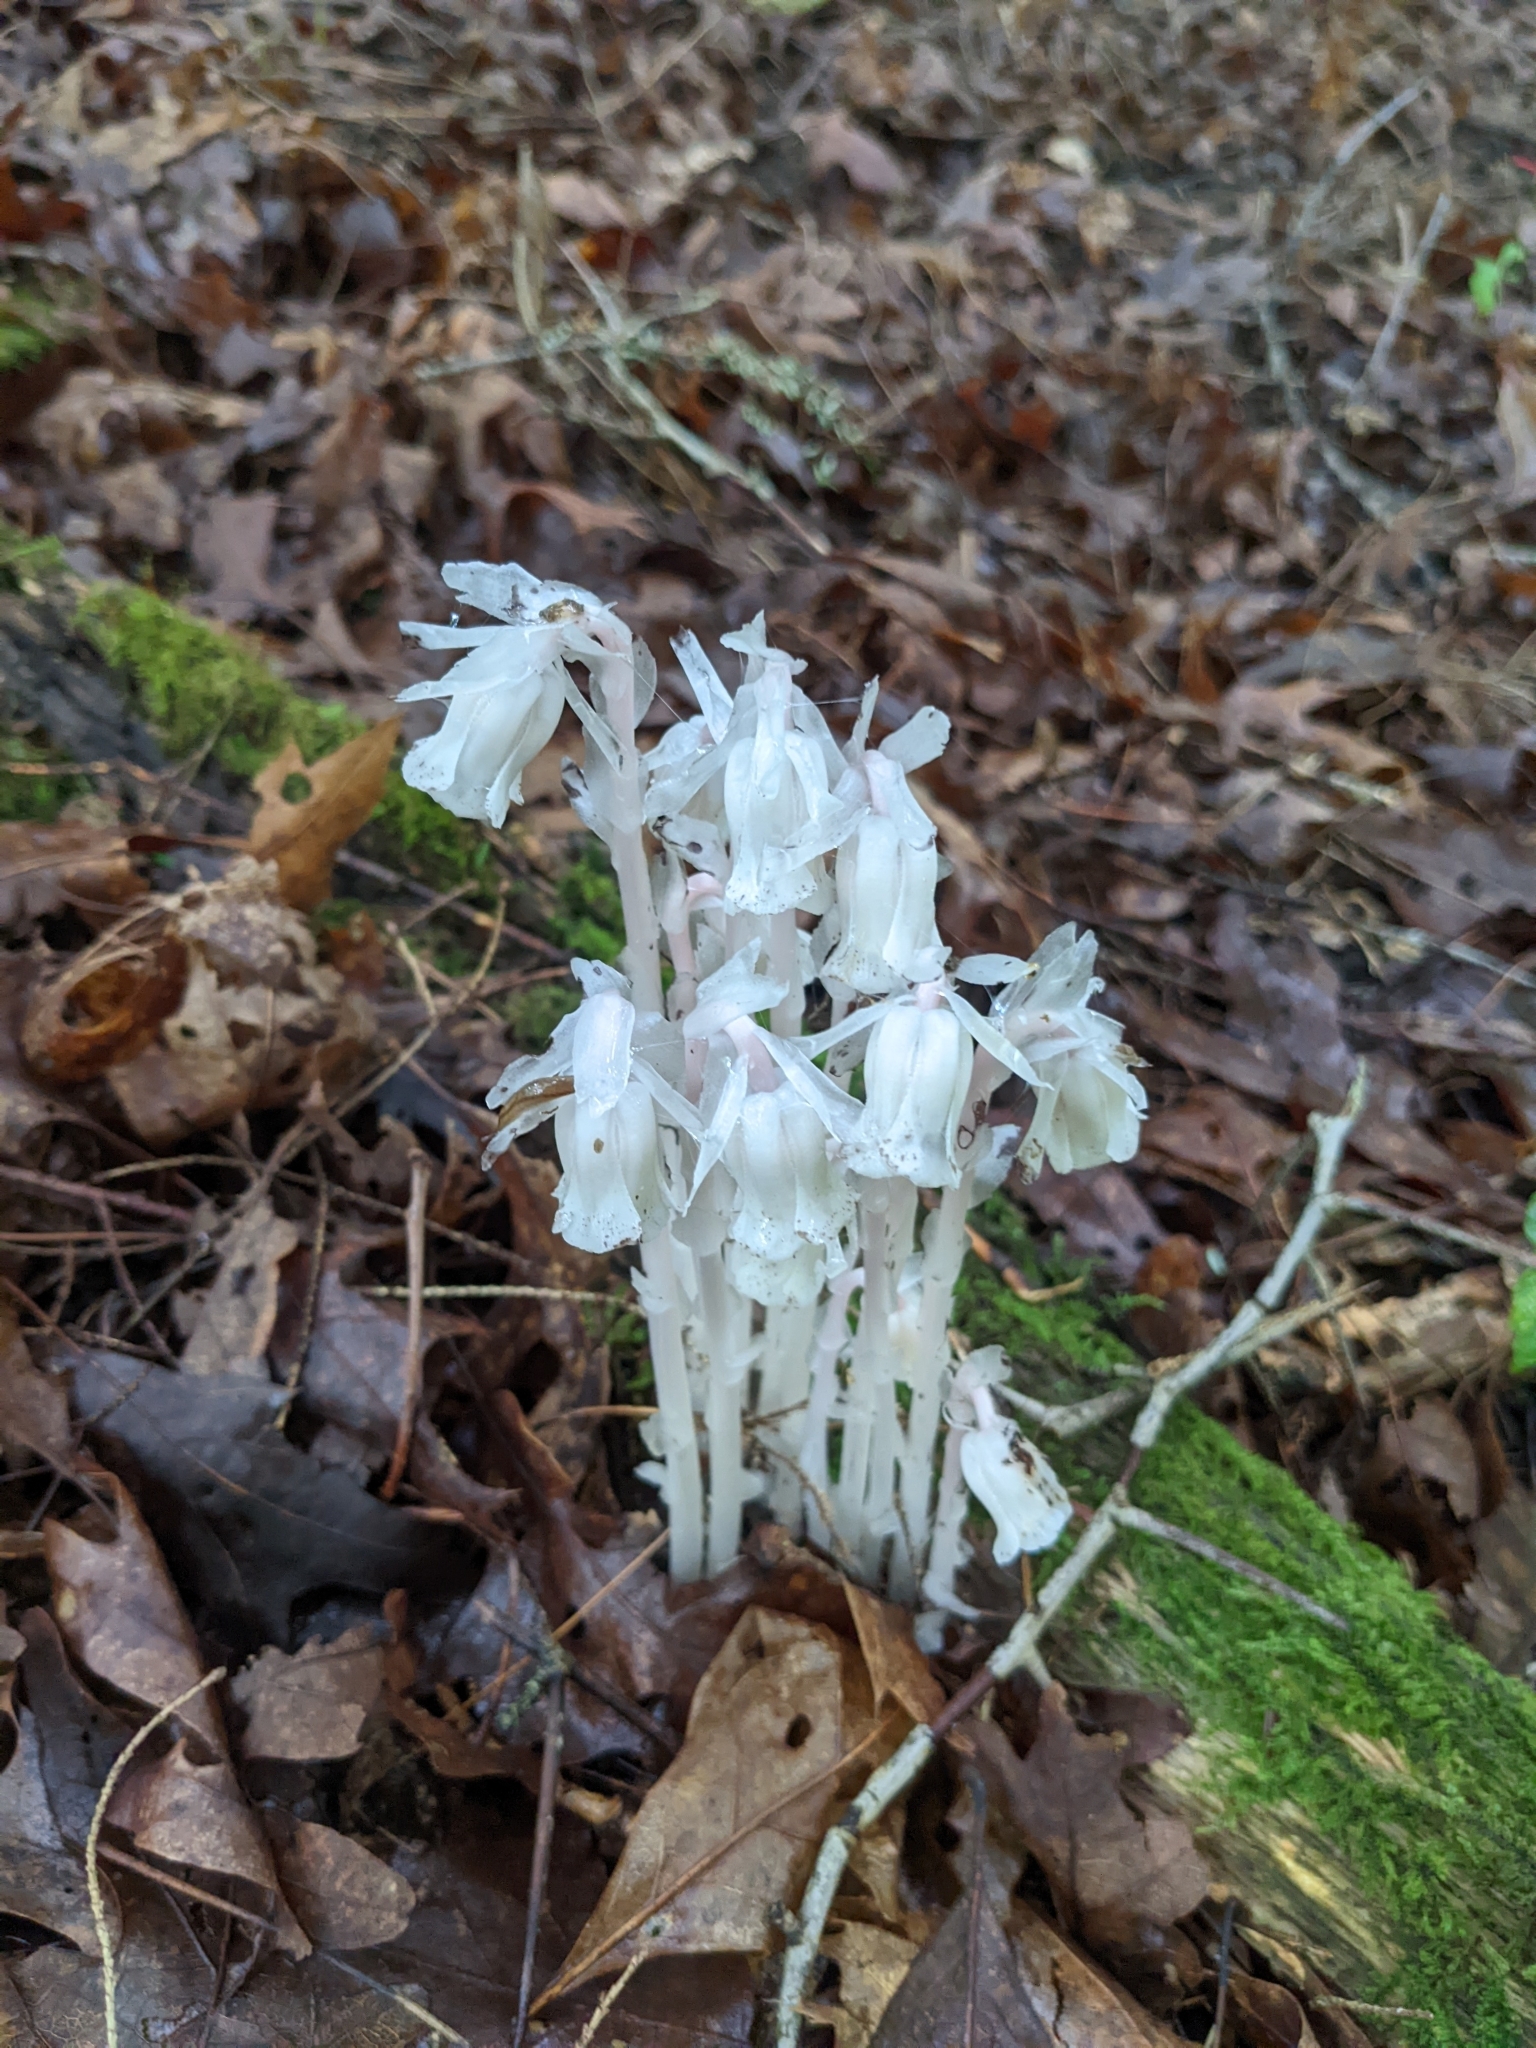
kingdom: Plantae
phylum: Tracheophyta
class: Magnoliopsida
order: Ericales
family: Ericaceae
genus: Monotropa
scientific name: Monotropa uniflora
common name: Convulsion root
